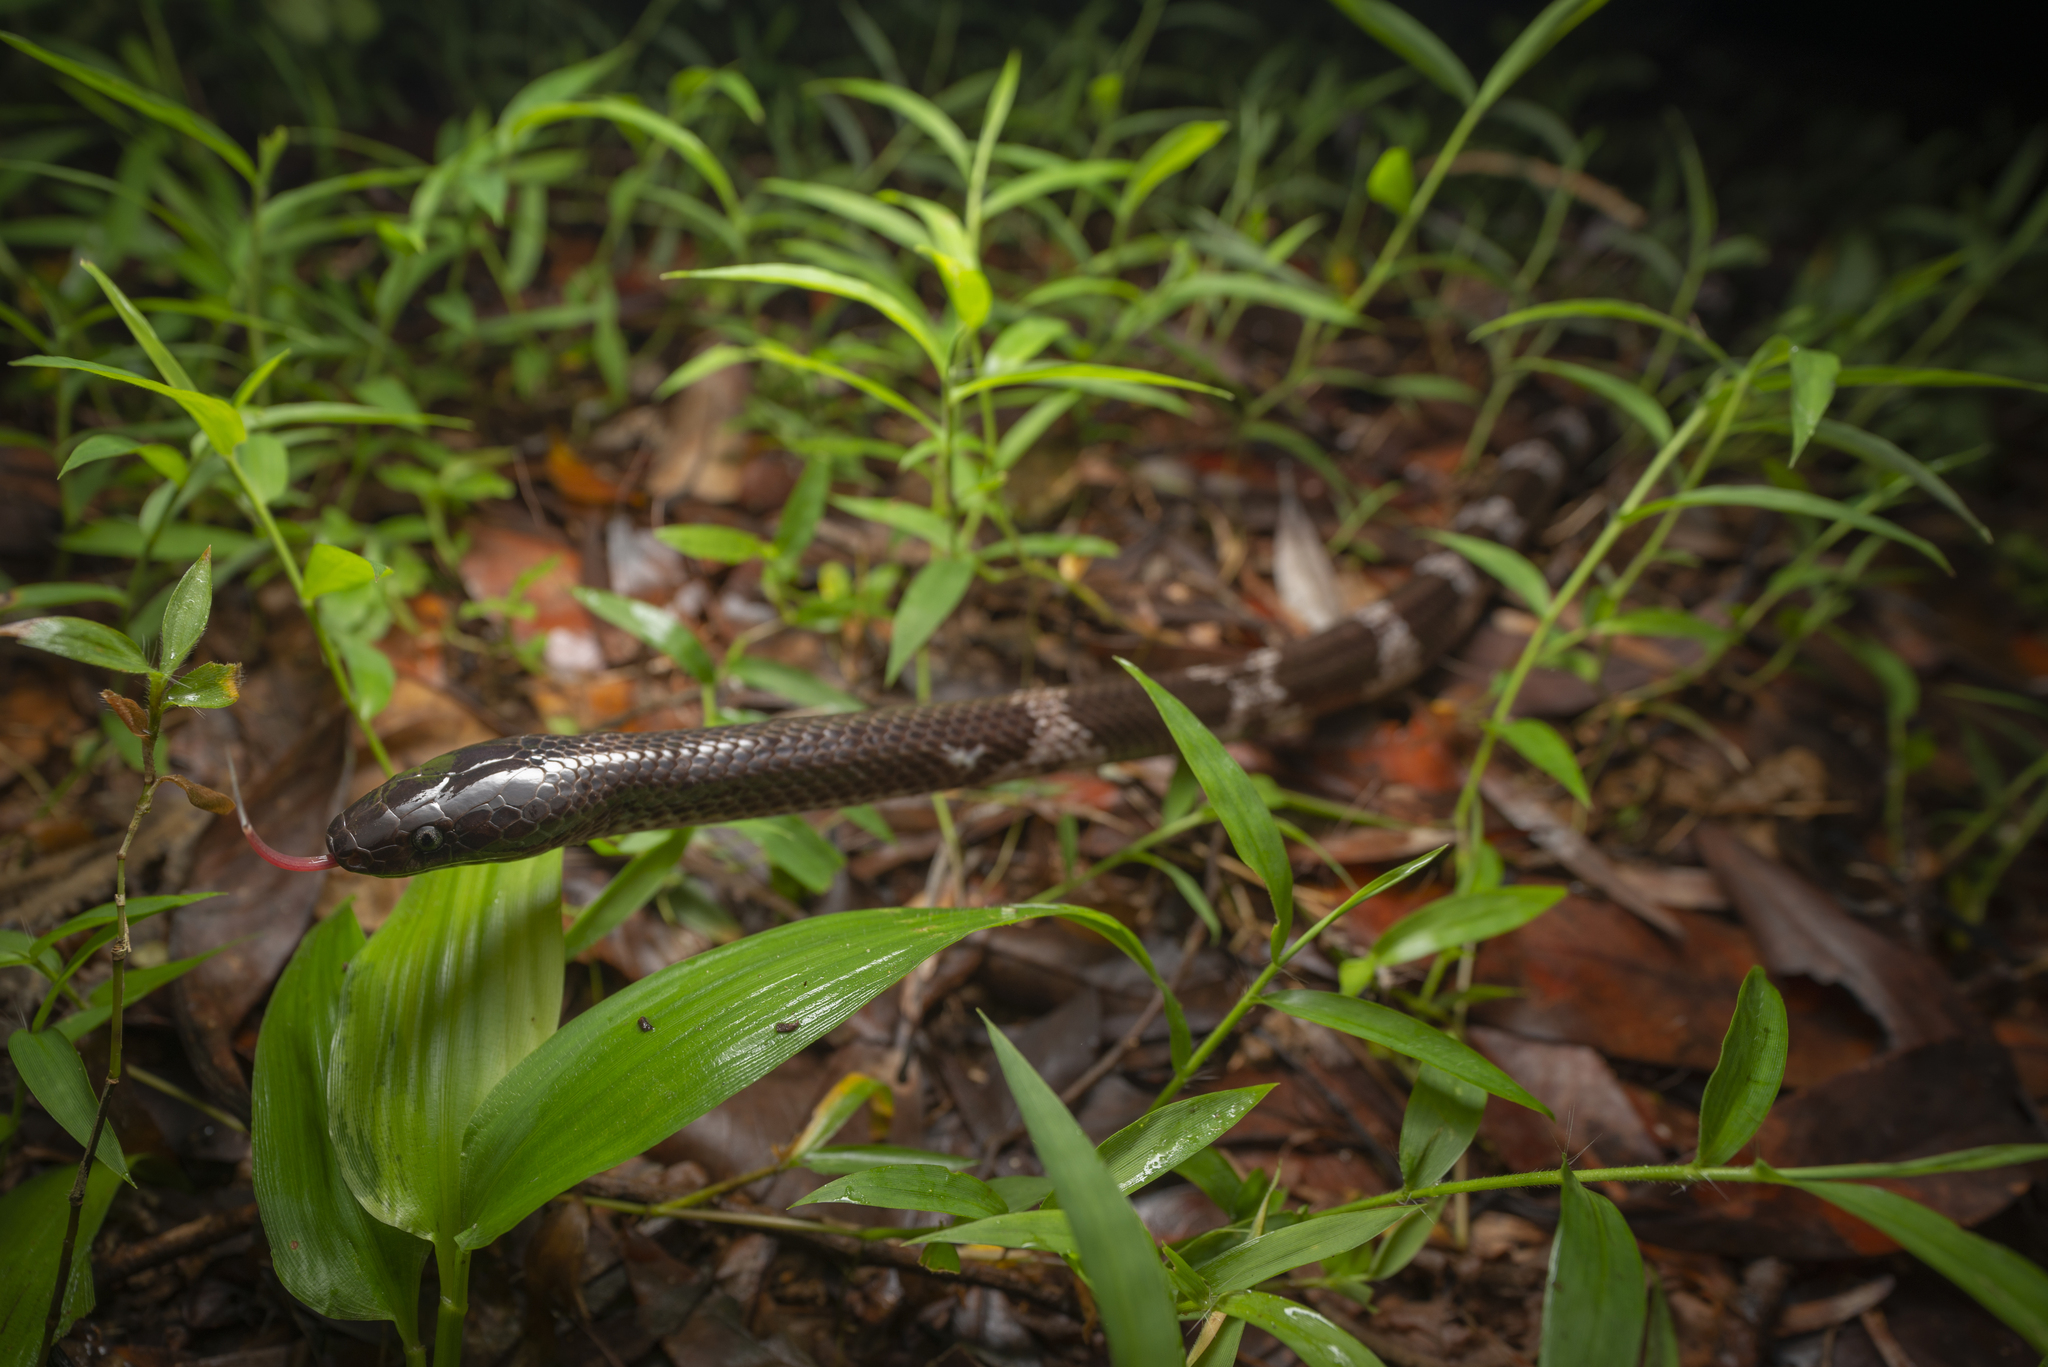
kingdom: Animalia
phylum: Chordata
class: Squamata
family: Colubridae
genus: Lycodon
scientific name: Lycodon futsingensis
